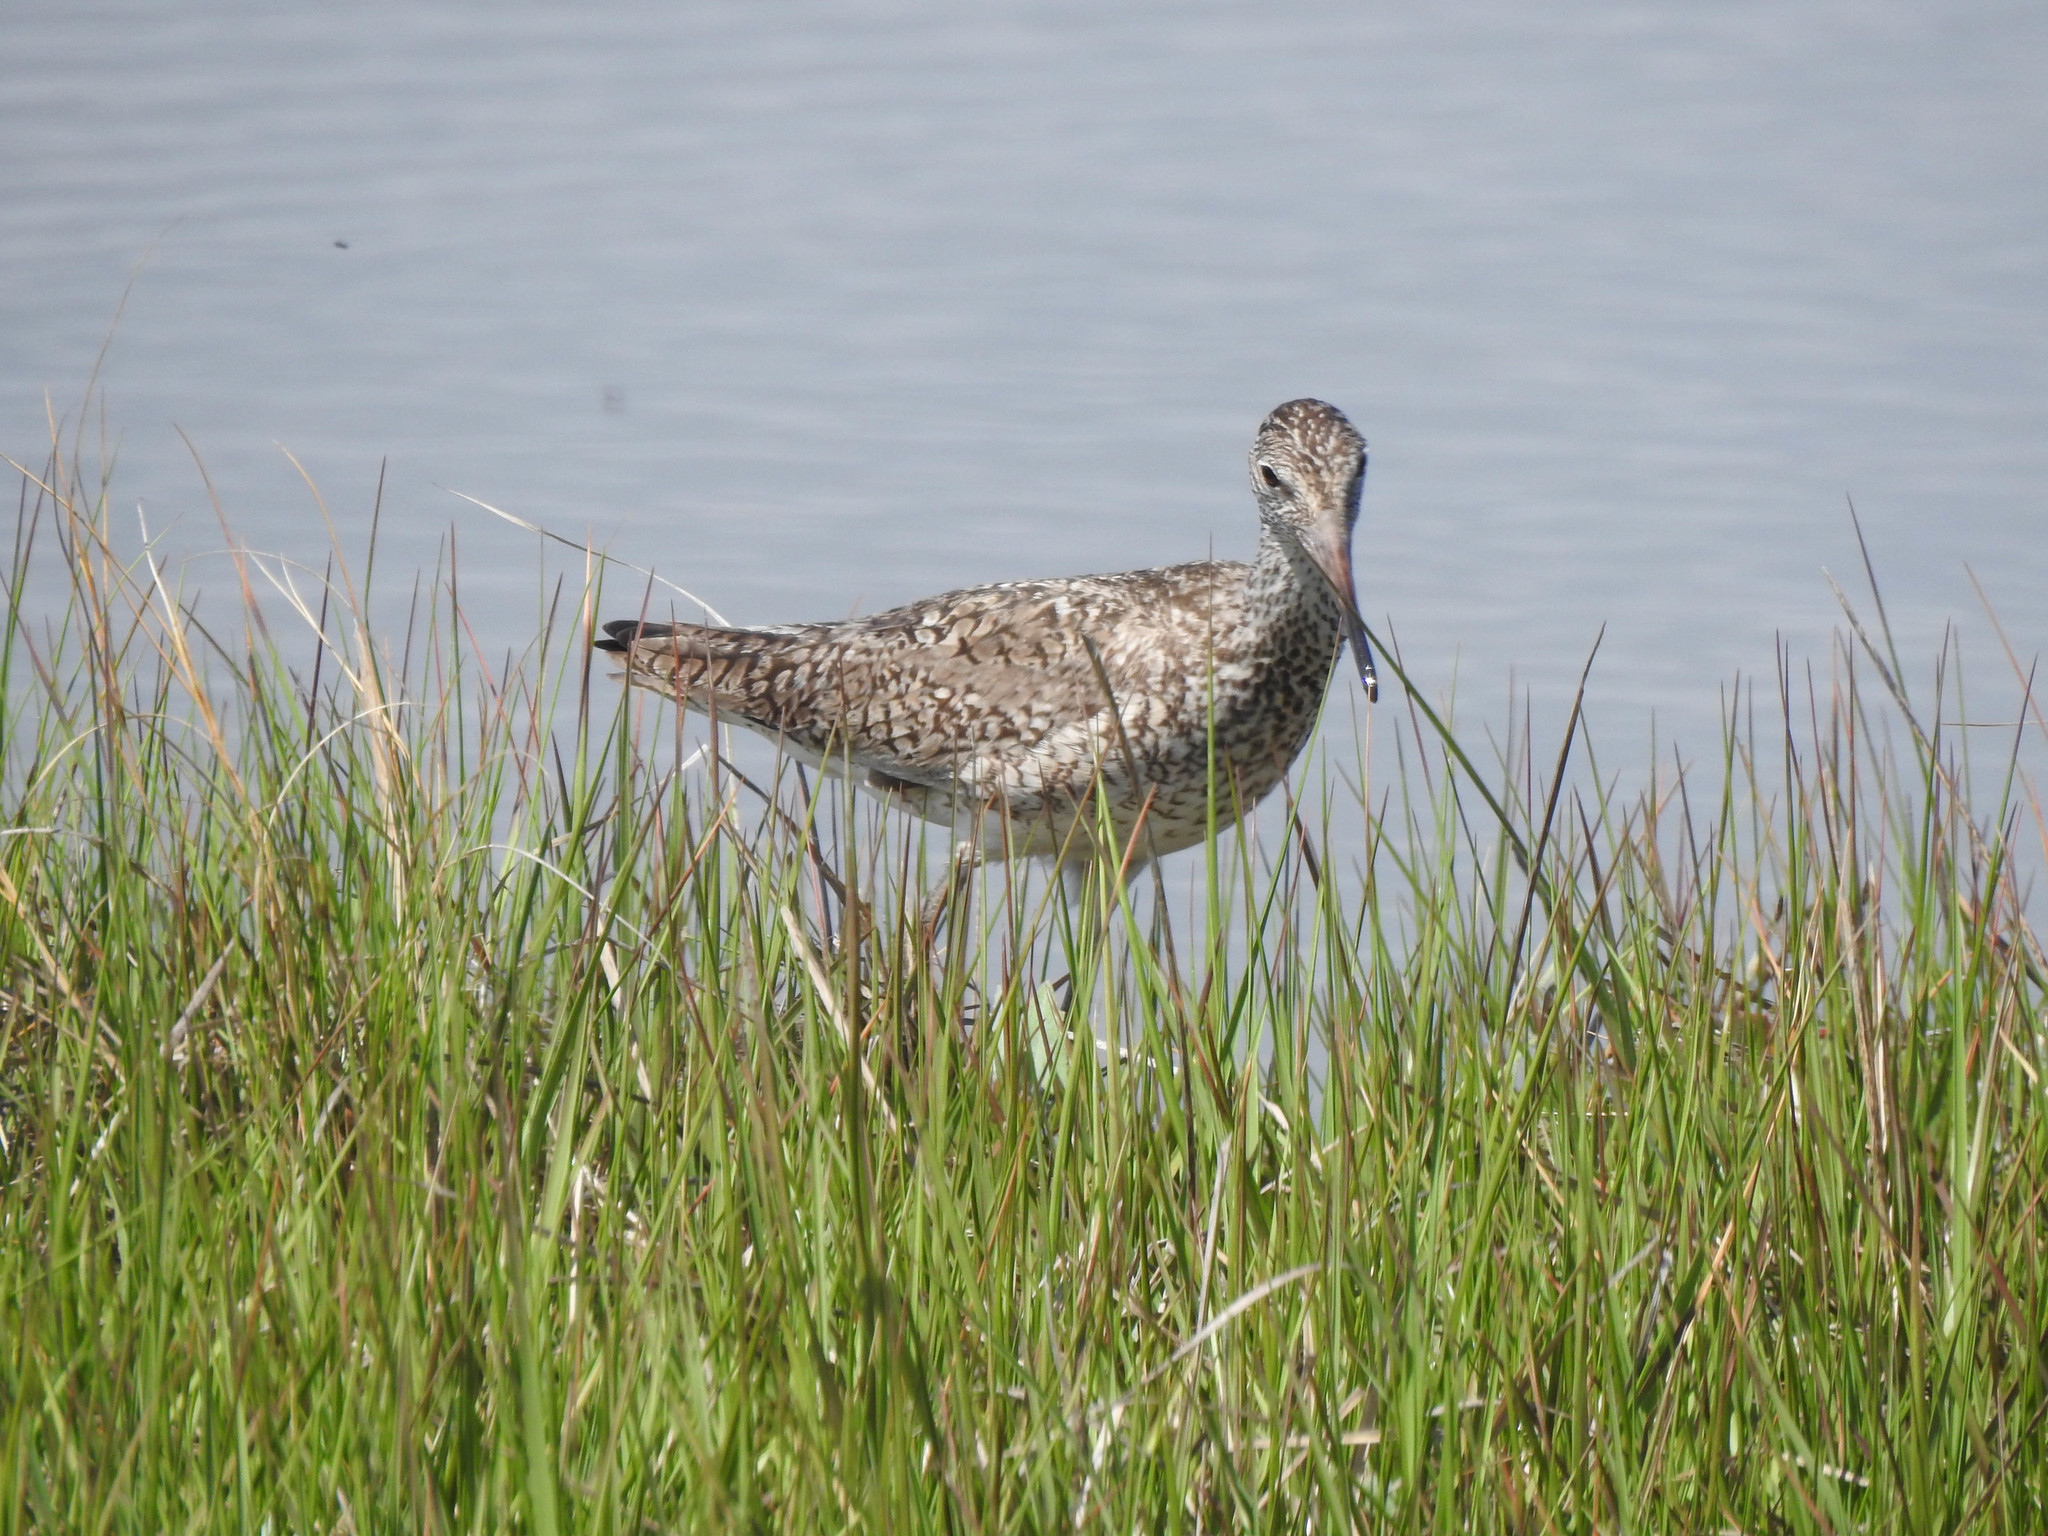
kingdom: Animalia
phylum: Chordata
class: Aves
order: Charadriiformes
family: Scolopacidae
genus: Tringa
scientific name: Tringa semipalmata
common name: Willet
